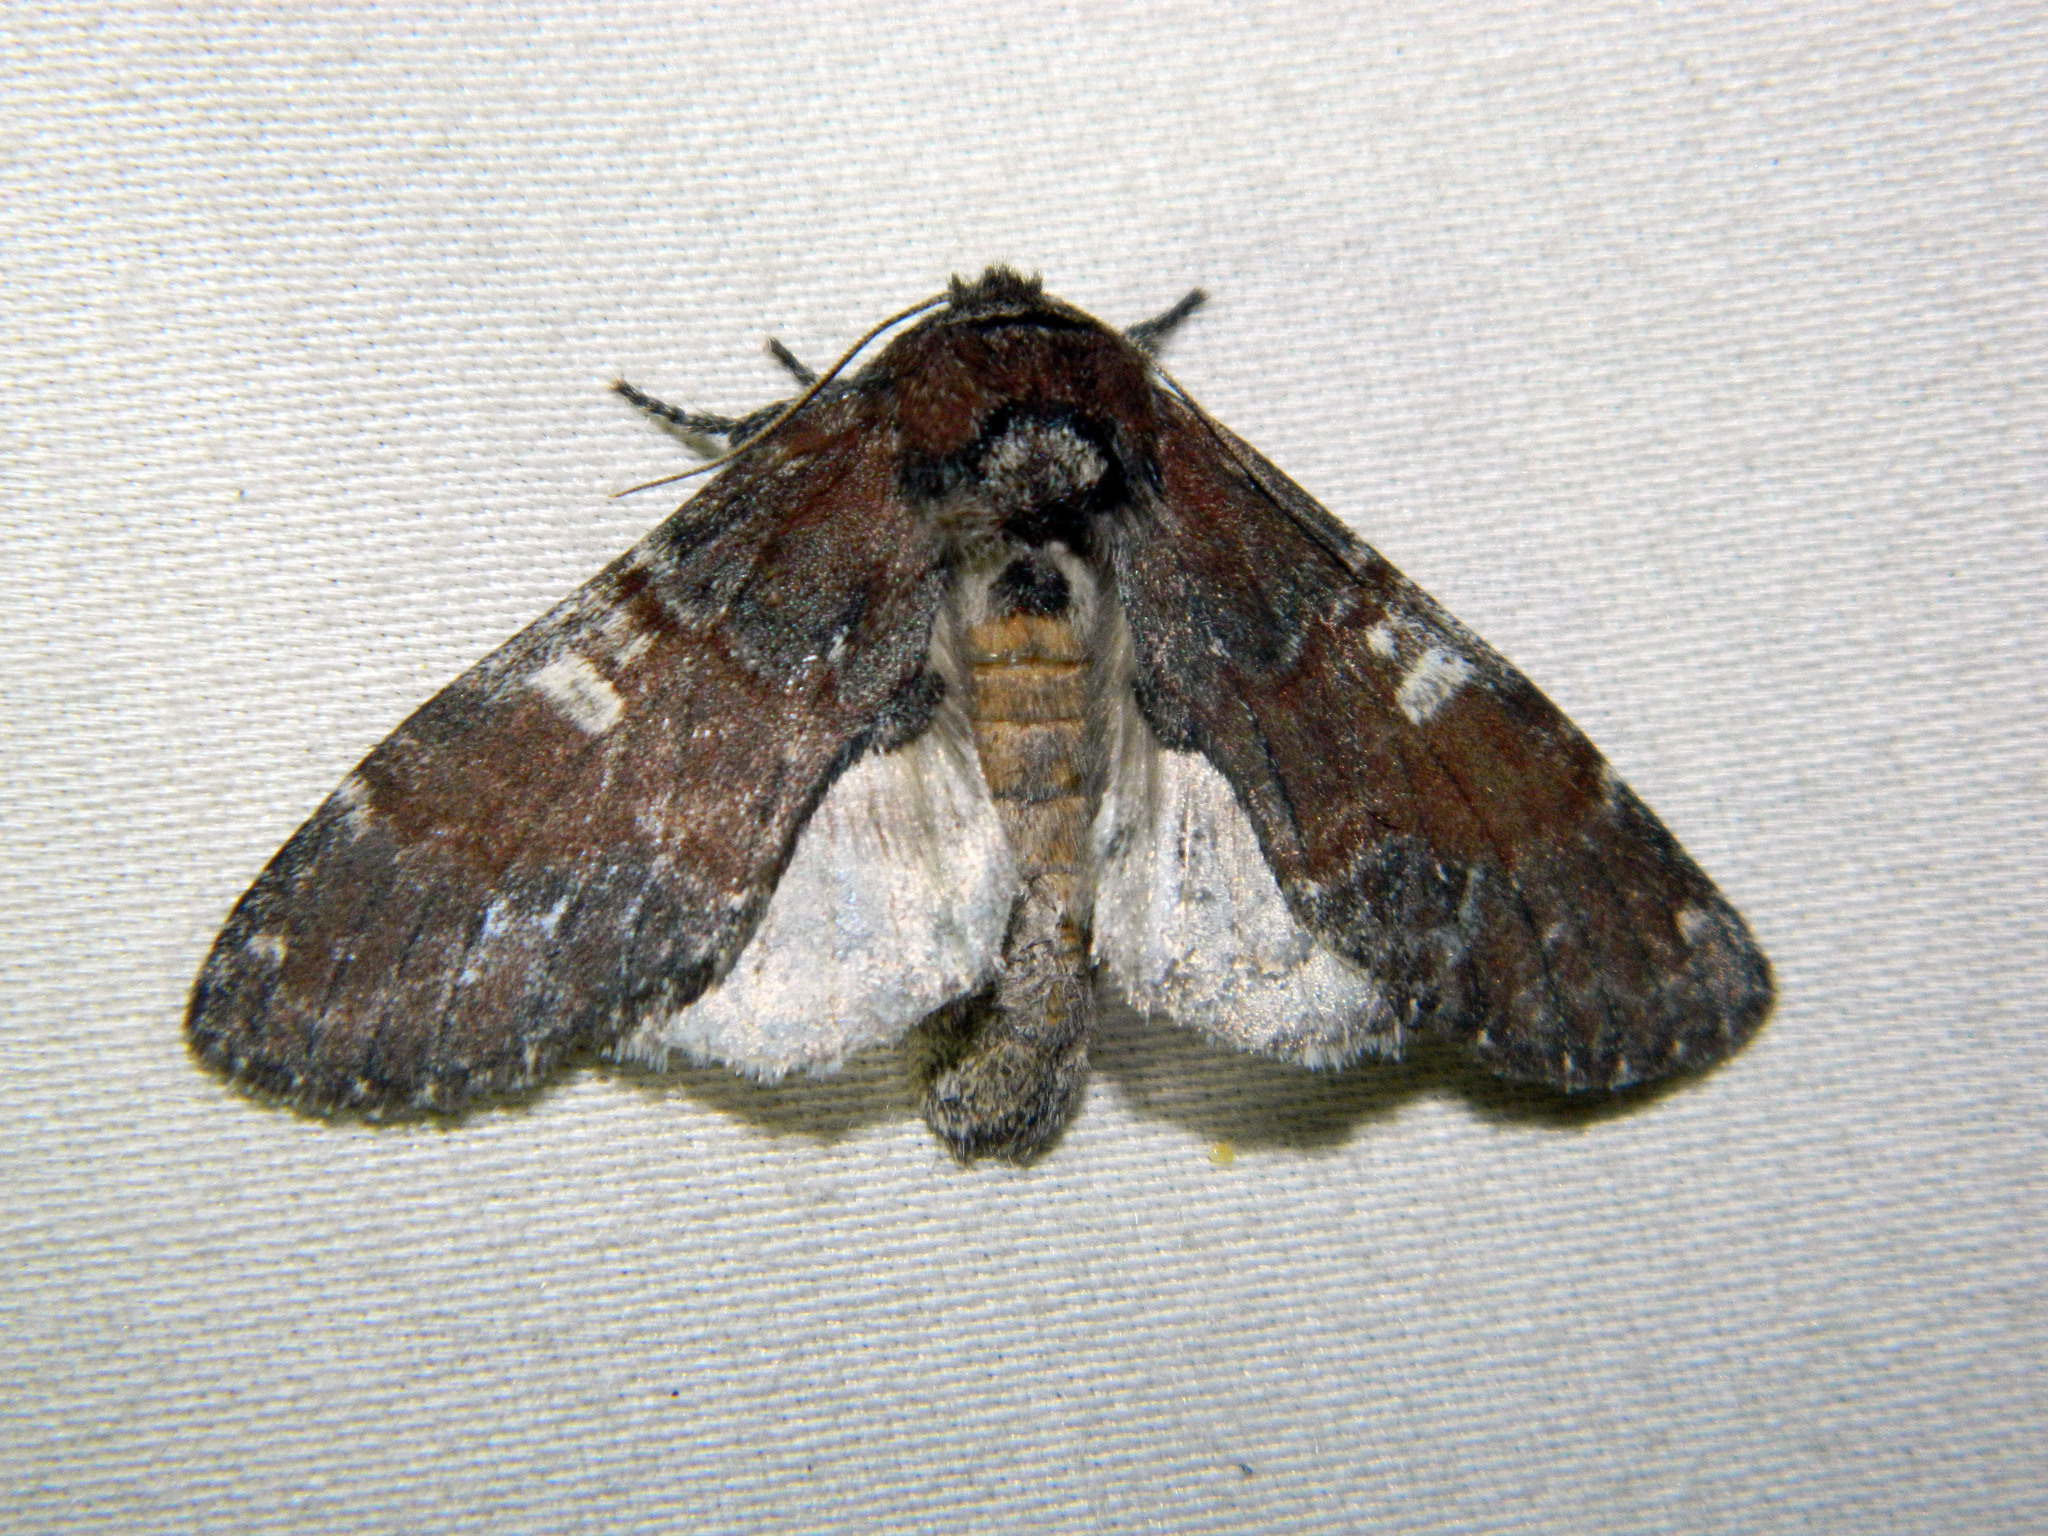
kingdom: Animalia
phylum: Arthropoda
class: Insecta
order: Lepidoptera
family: Notodontidae
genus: Peridea
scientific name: Peridea ferruginea
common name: Chocolate prominent
